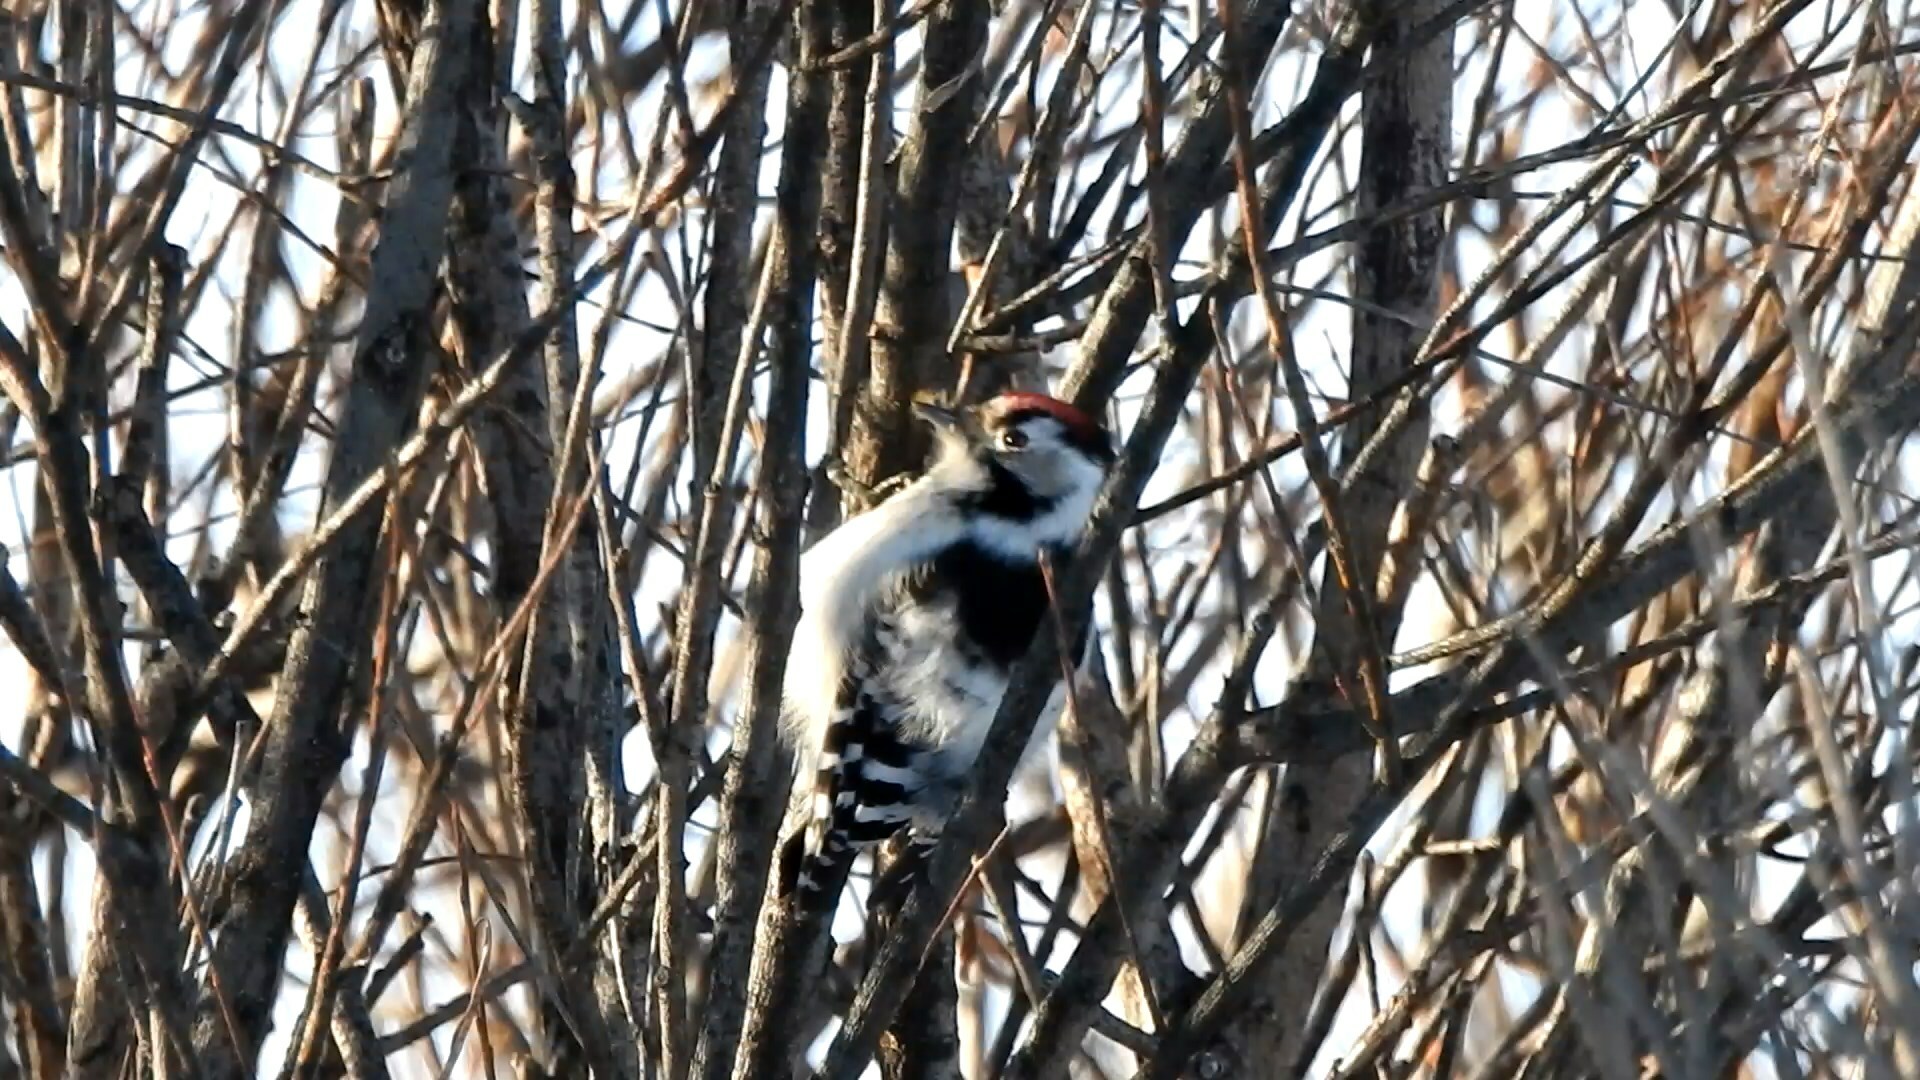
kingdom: Animalia
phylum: Chordata
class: Aves
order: Piciformes
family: Picidae
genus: Dryobates
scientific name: Dryobates minor
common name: Lesser spotted woodpecker
